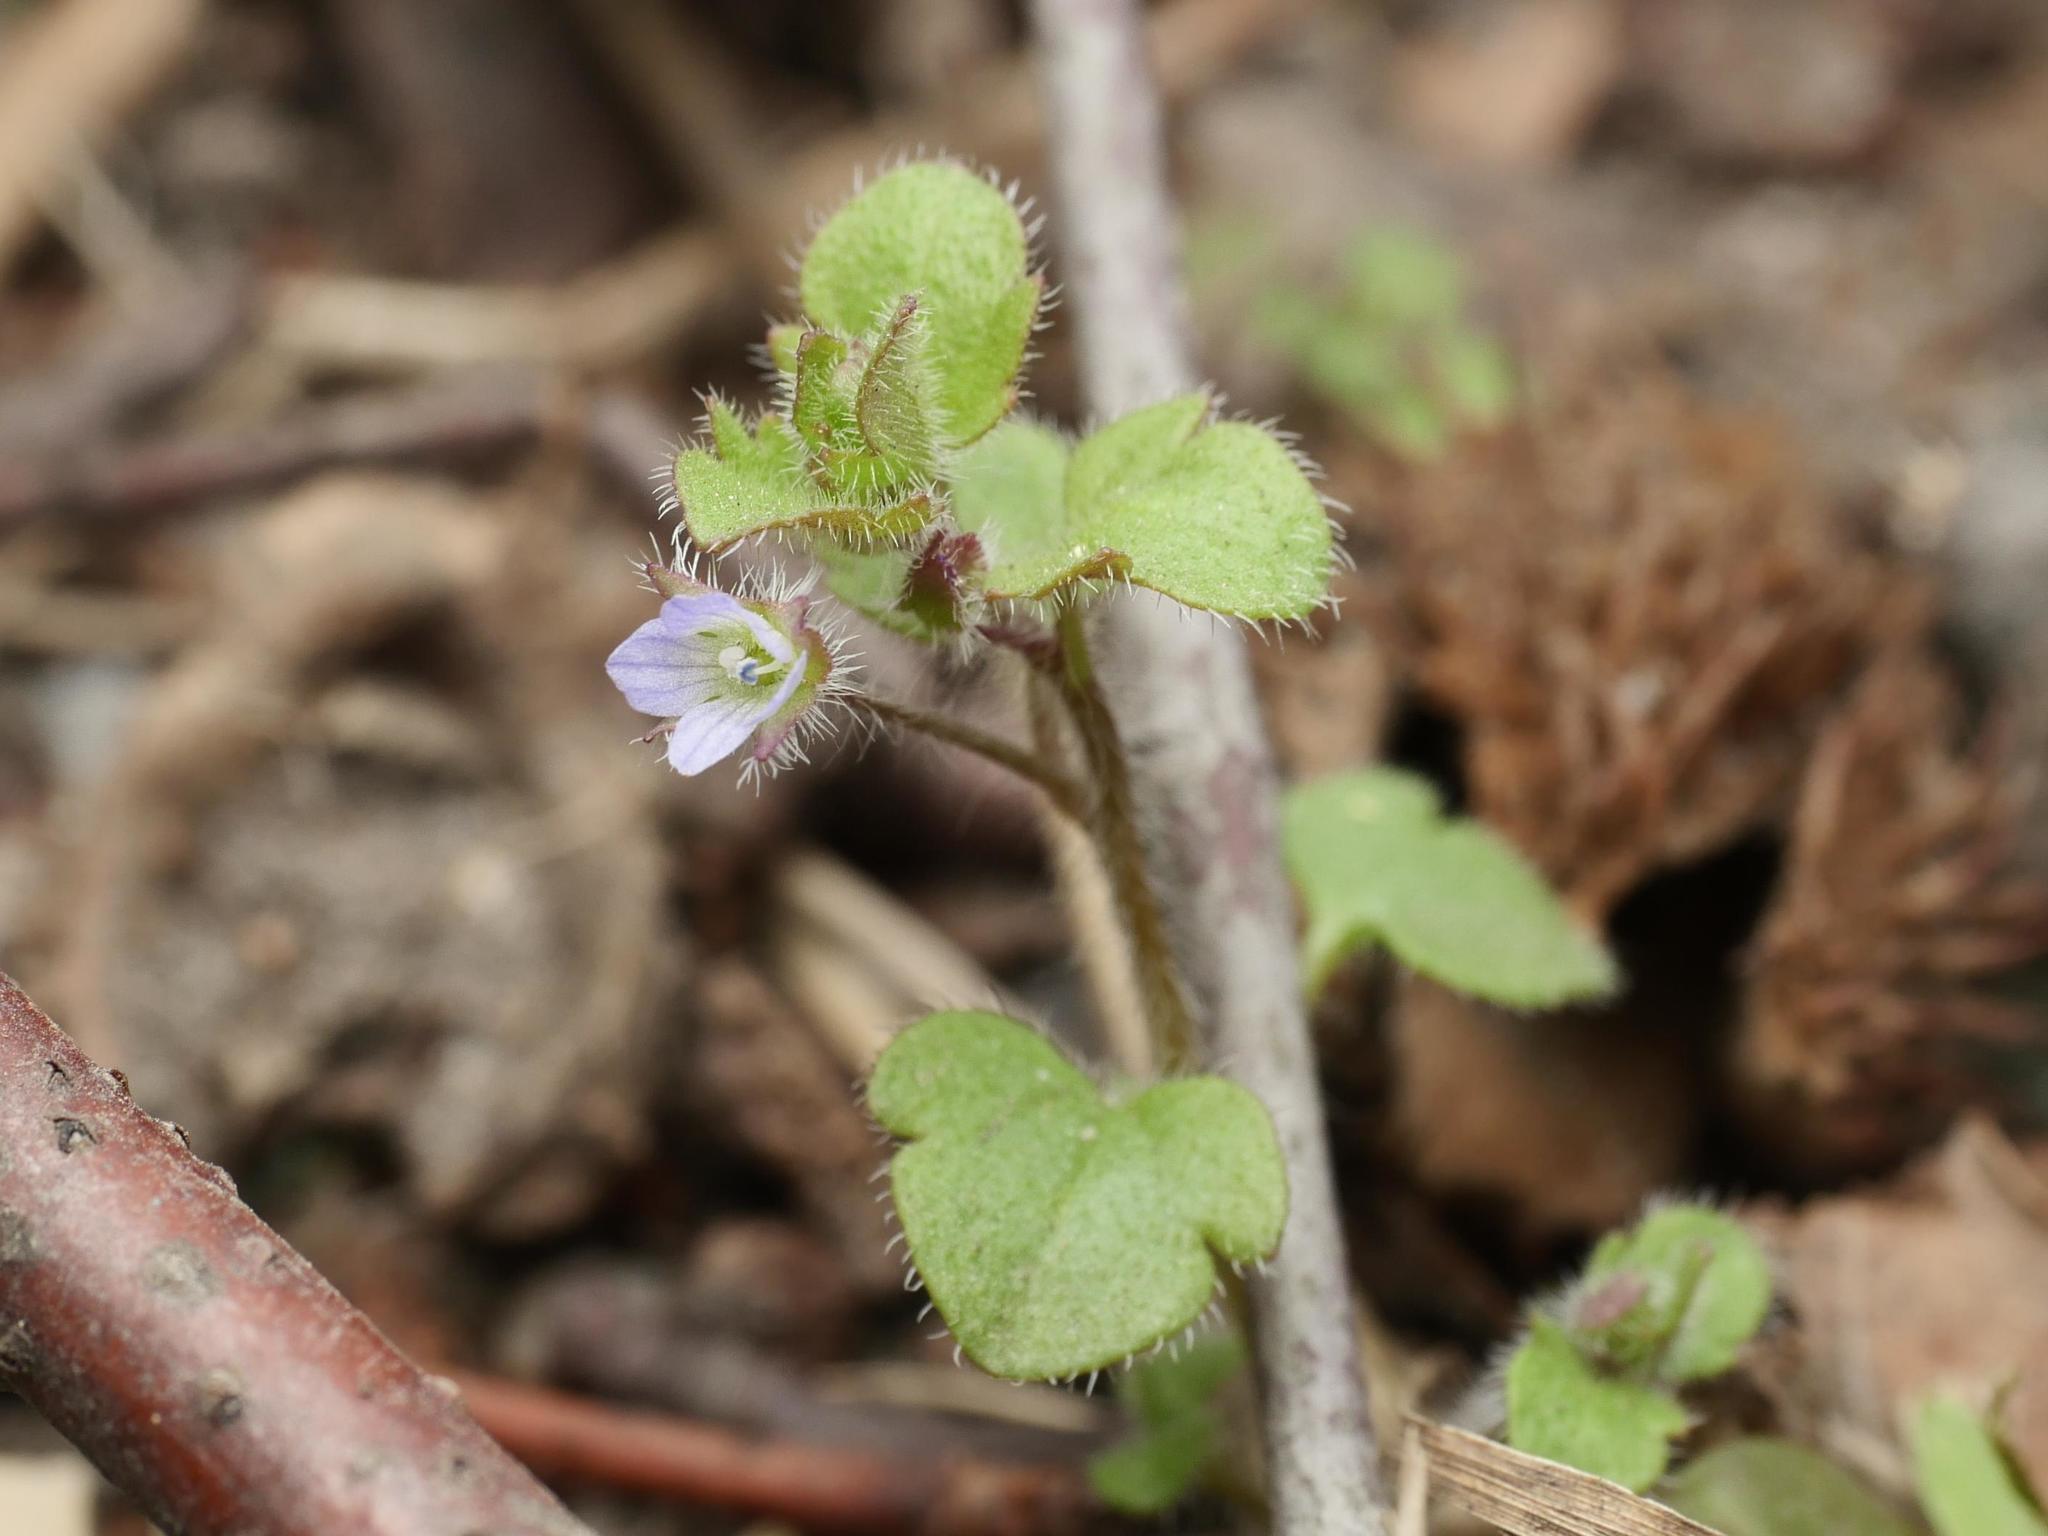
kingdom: Plantae
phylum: Tracheophyta
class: Magnoliopsida
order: Lamiales
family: Plantaginaceae
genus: Veronica
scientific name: Veronica sublobata
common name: False ivy-leaved speedwell
